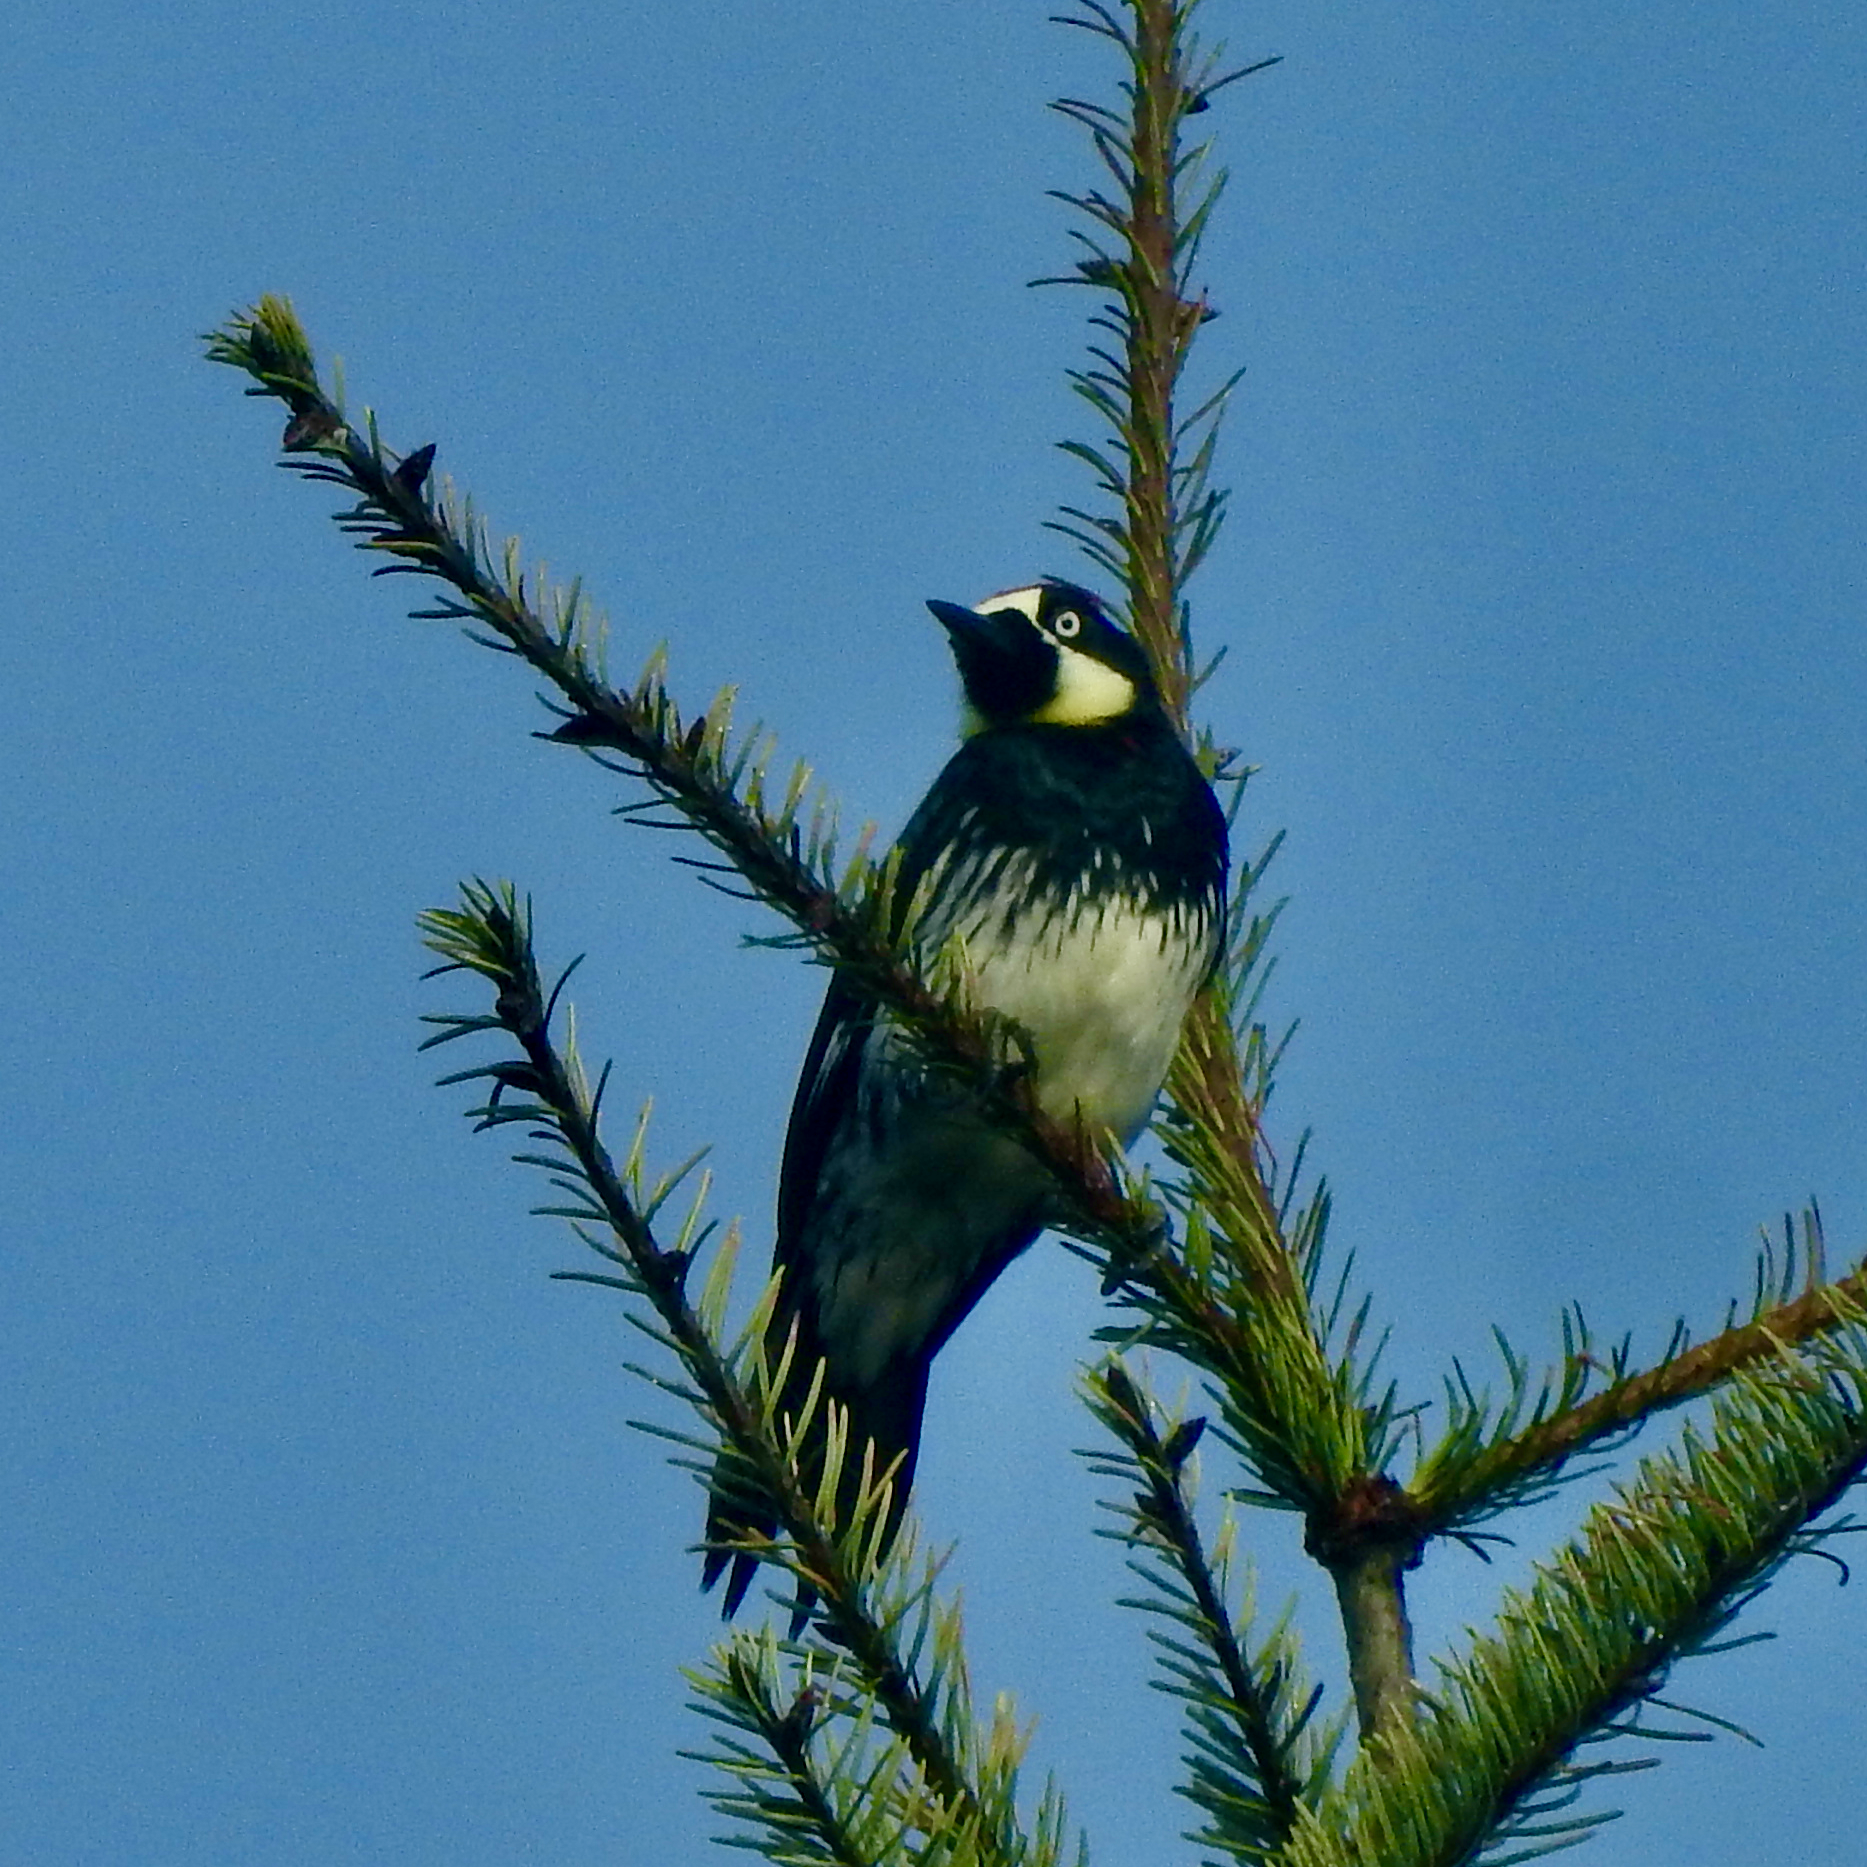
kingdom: Animalia
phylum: Chordata
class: Aves
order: Piciformes
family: Picidae
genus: Melanerpes
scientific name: Melanerpes formicivorus
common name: Acorn woodpecker
